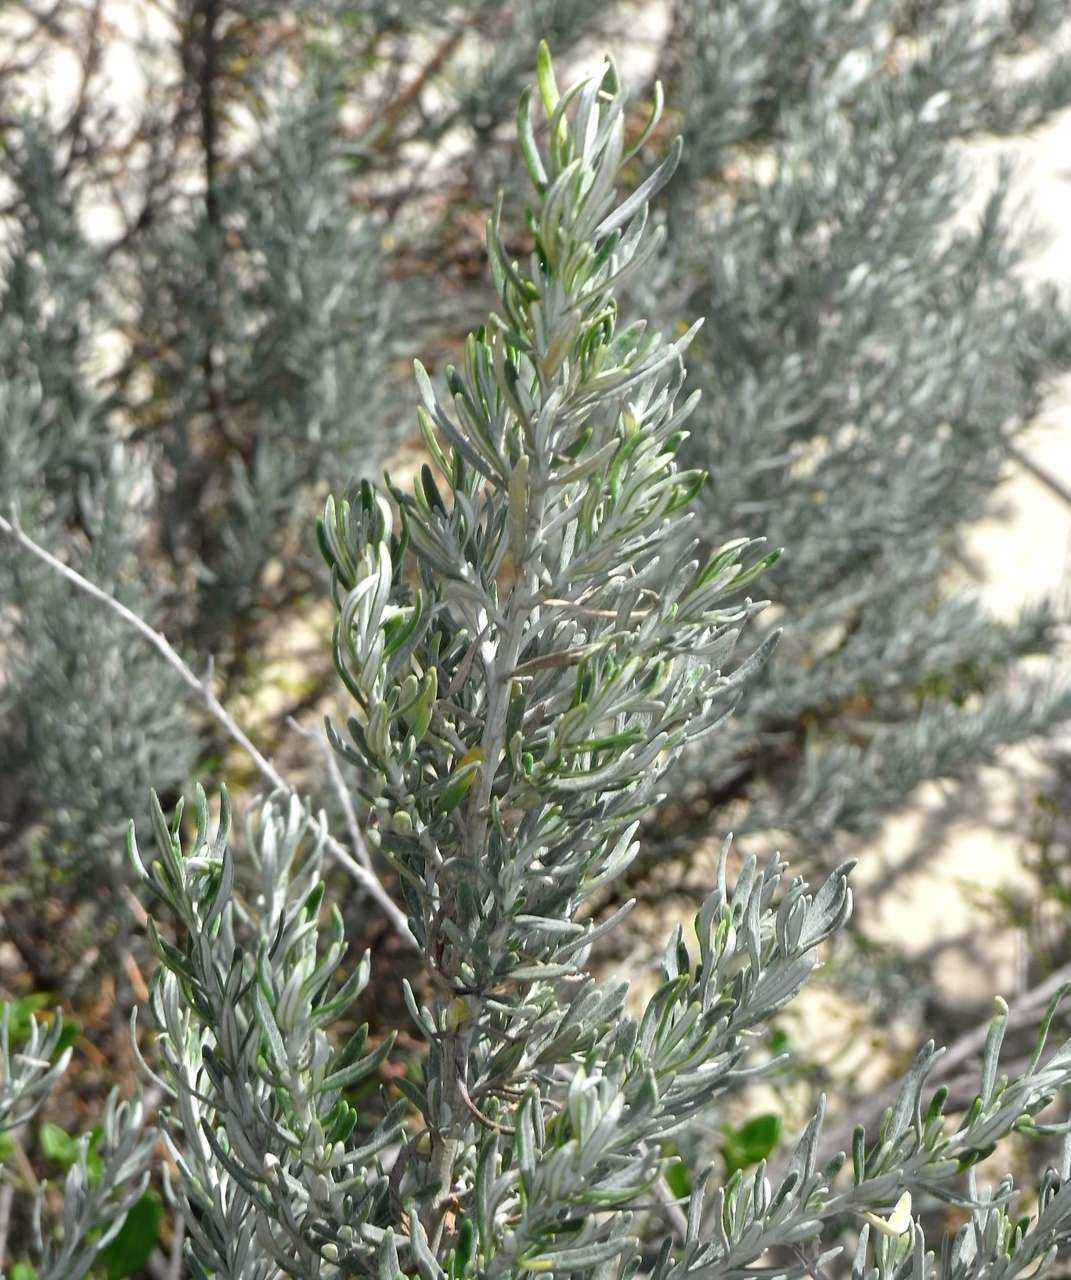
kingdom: Plantae
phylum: Tracheophyta
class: Magnoliopsida
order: Asterales
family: Asteraceae
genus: Olearia
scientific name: Olearia axillaris
